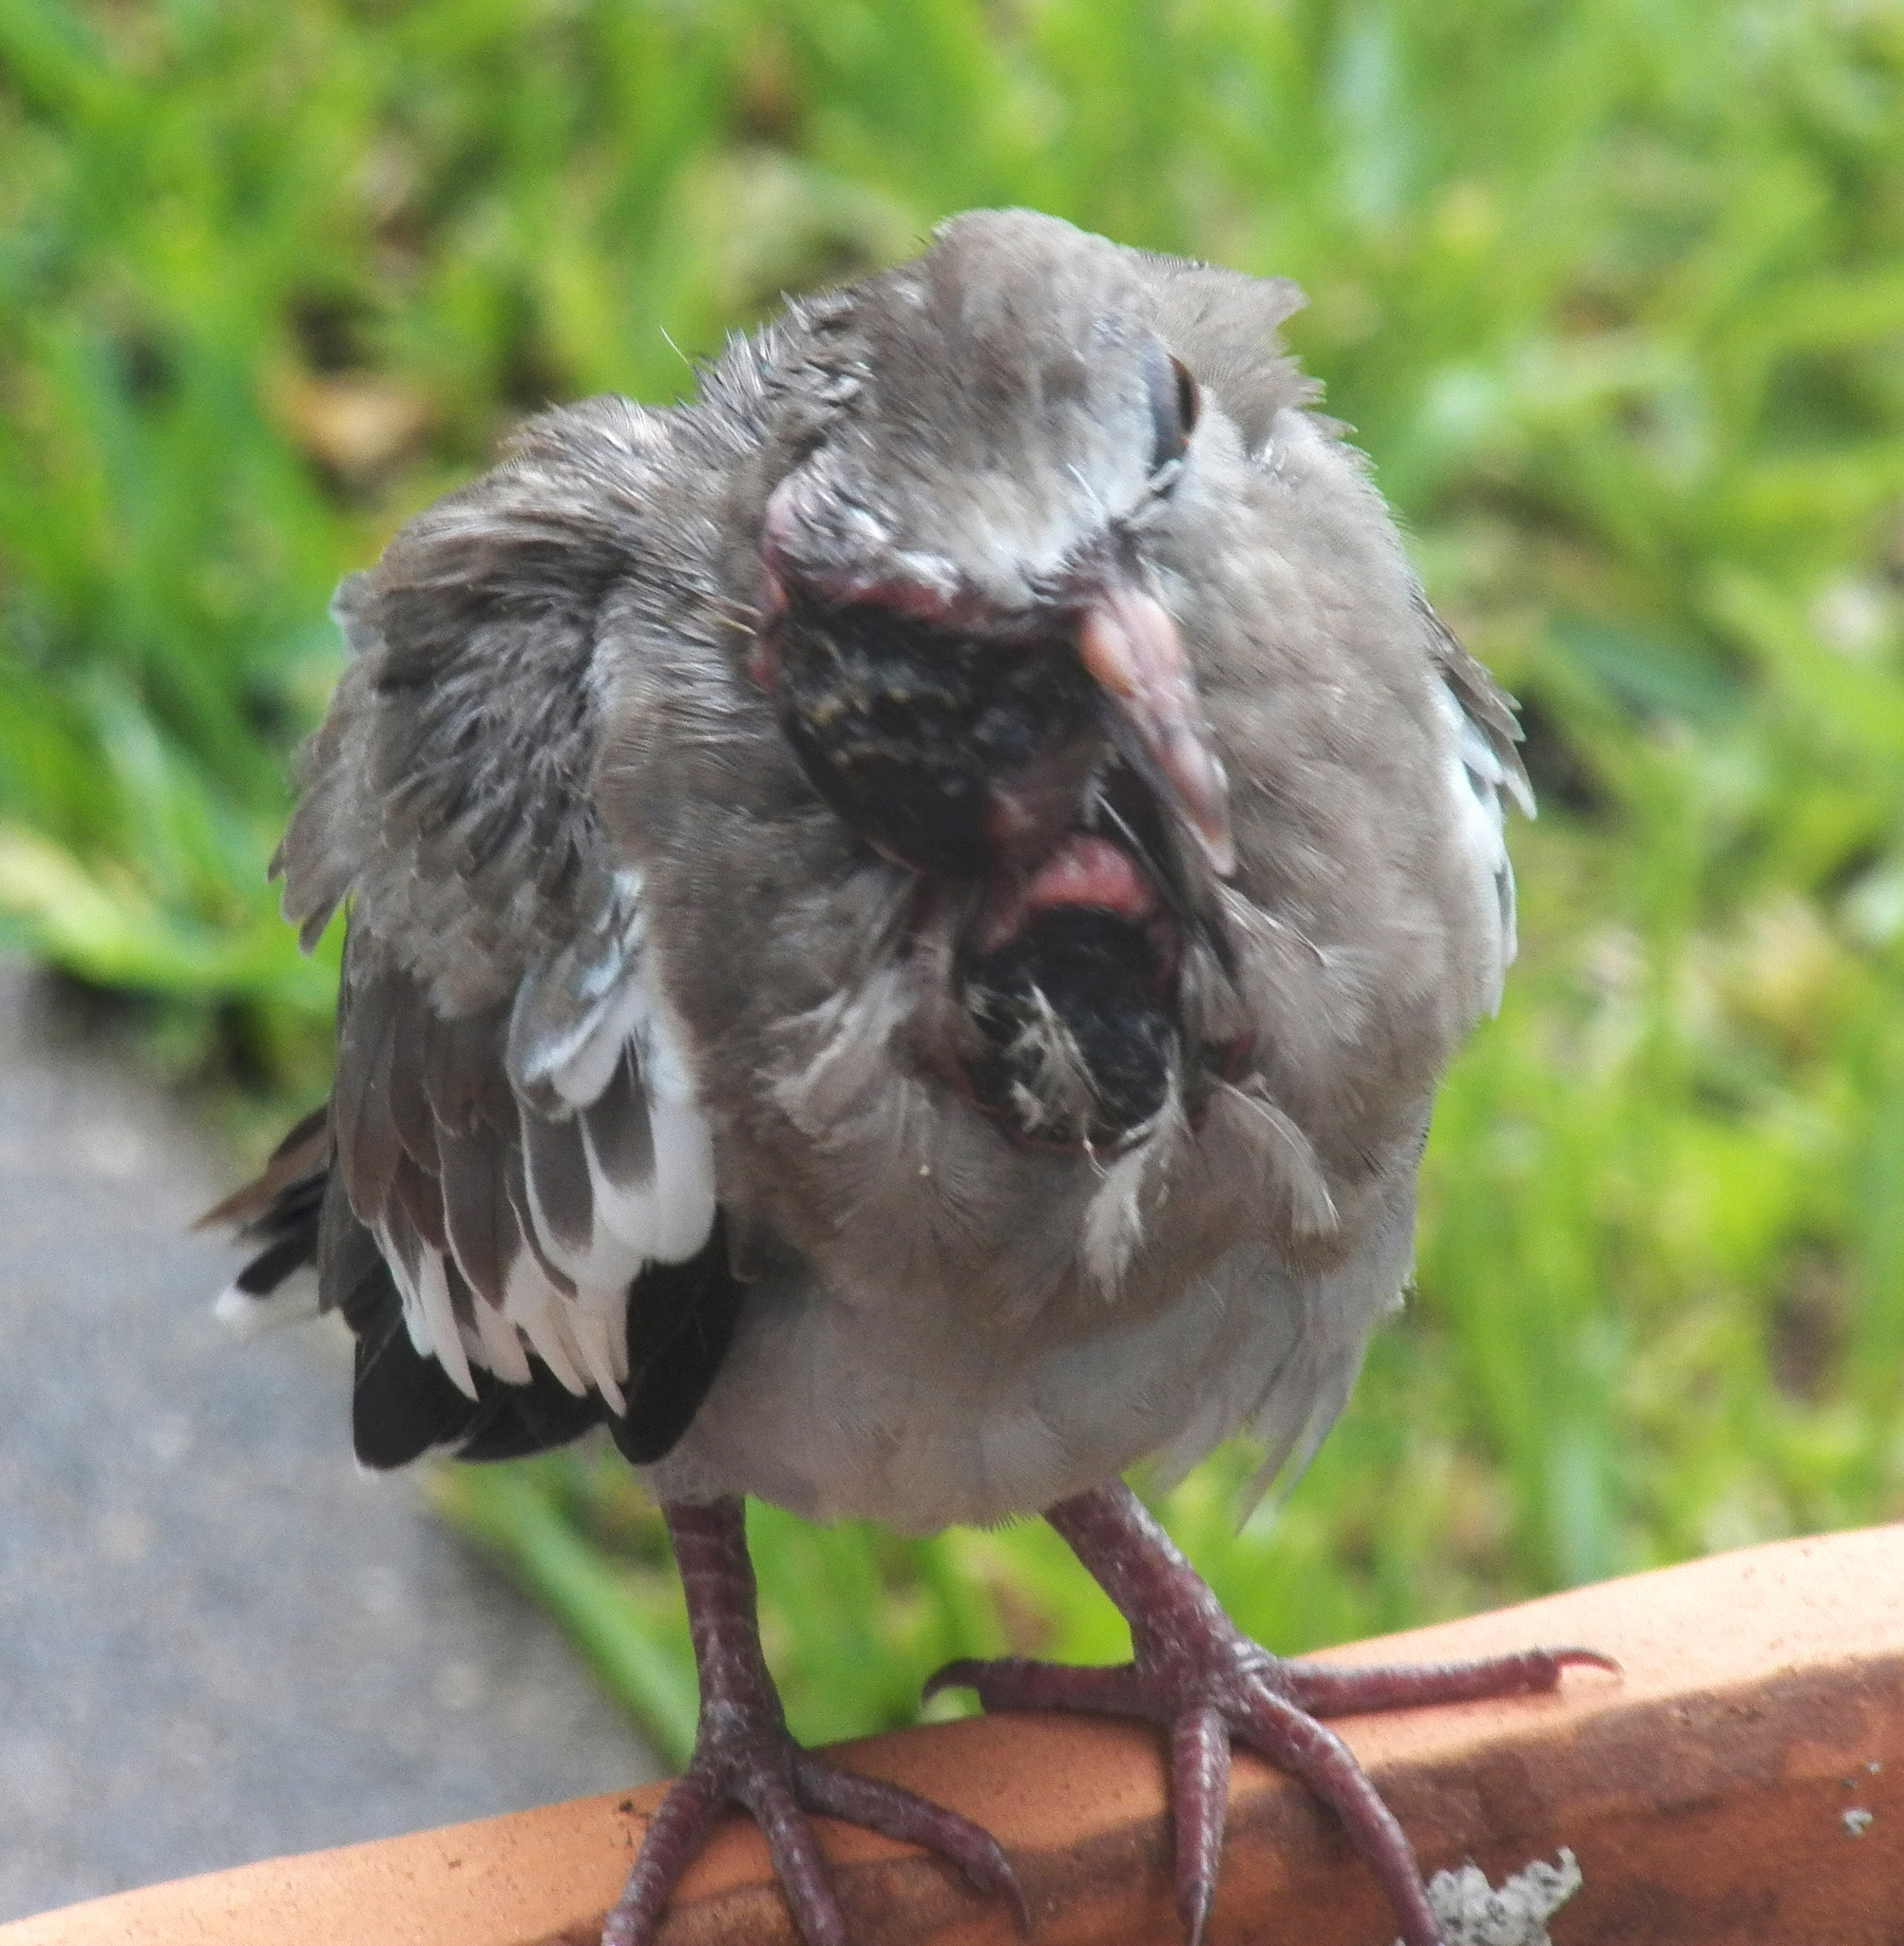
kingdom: Animalia
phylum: Chordata
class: Aves
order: Columbiformes
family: Columbidae
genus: Zenaida
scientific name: Zenaida asiatica
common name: White-winged dove
